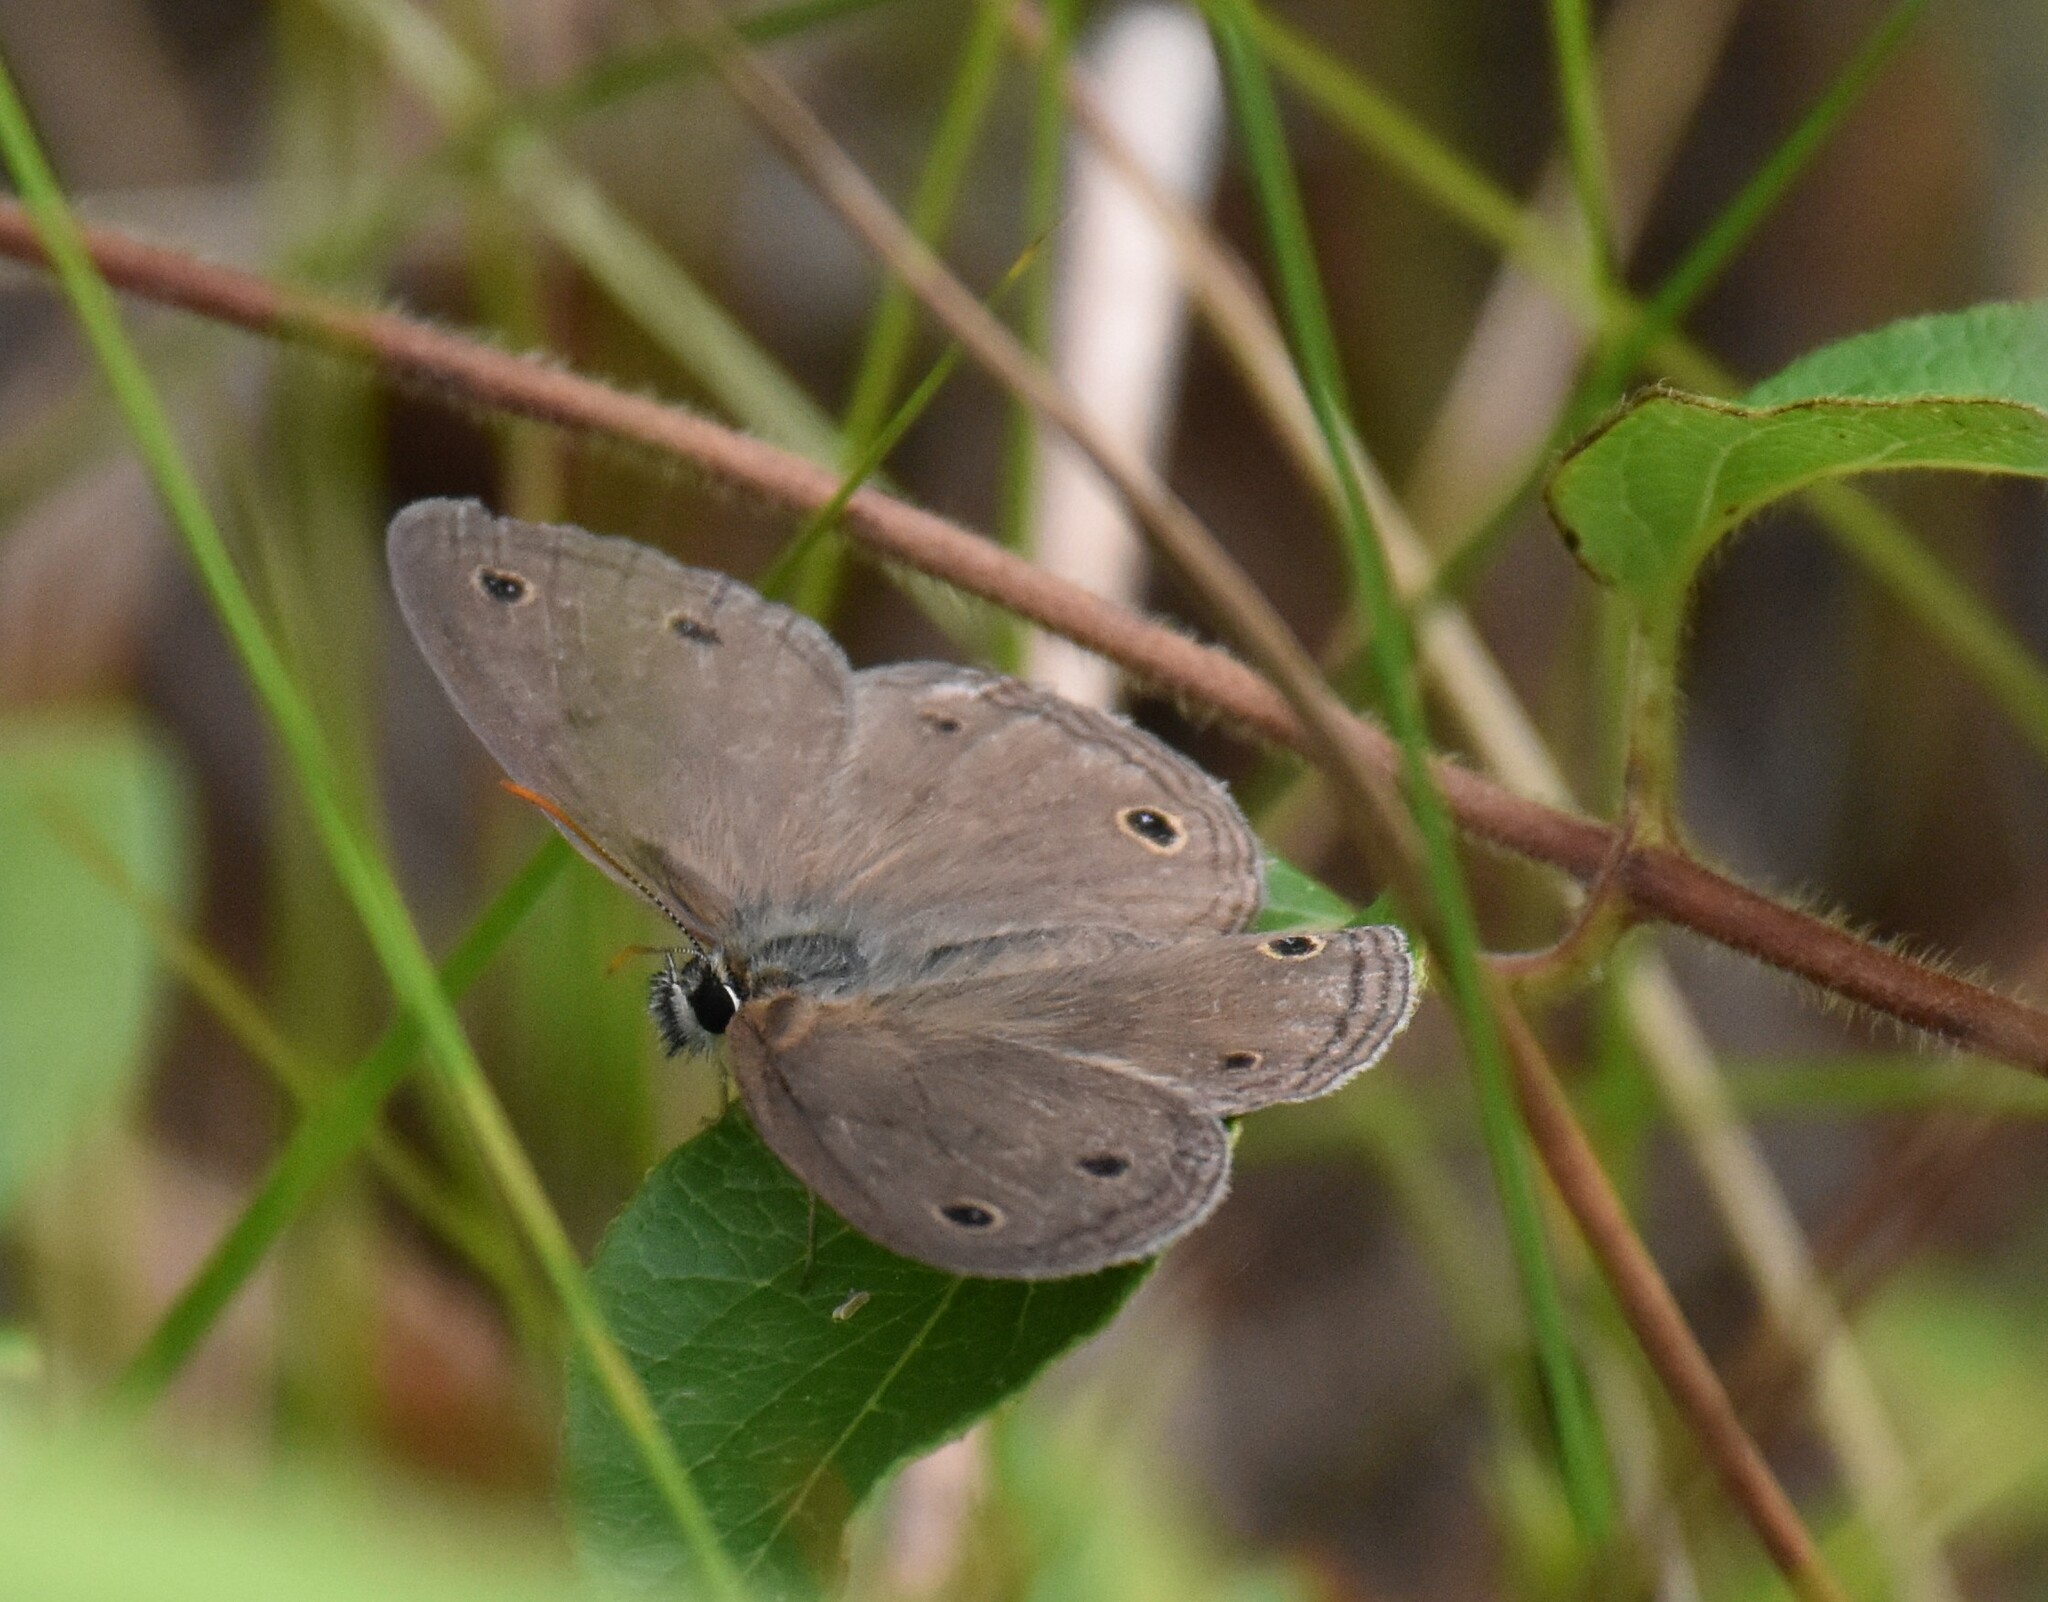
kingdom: Animalia
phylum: Arthropoda
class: Insecta
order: Lepidoptera
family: Nymphalidae
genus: Euptychia
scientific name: Euptychia cymela
